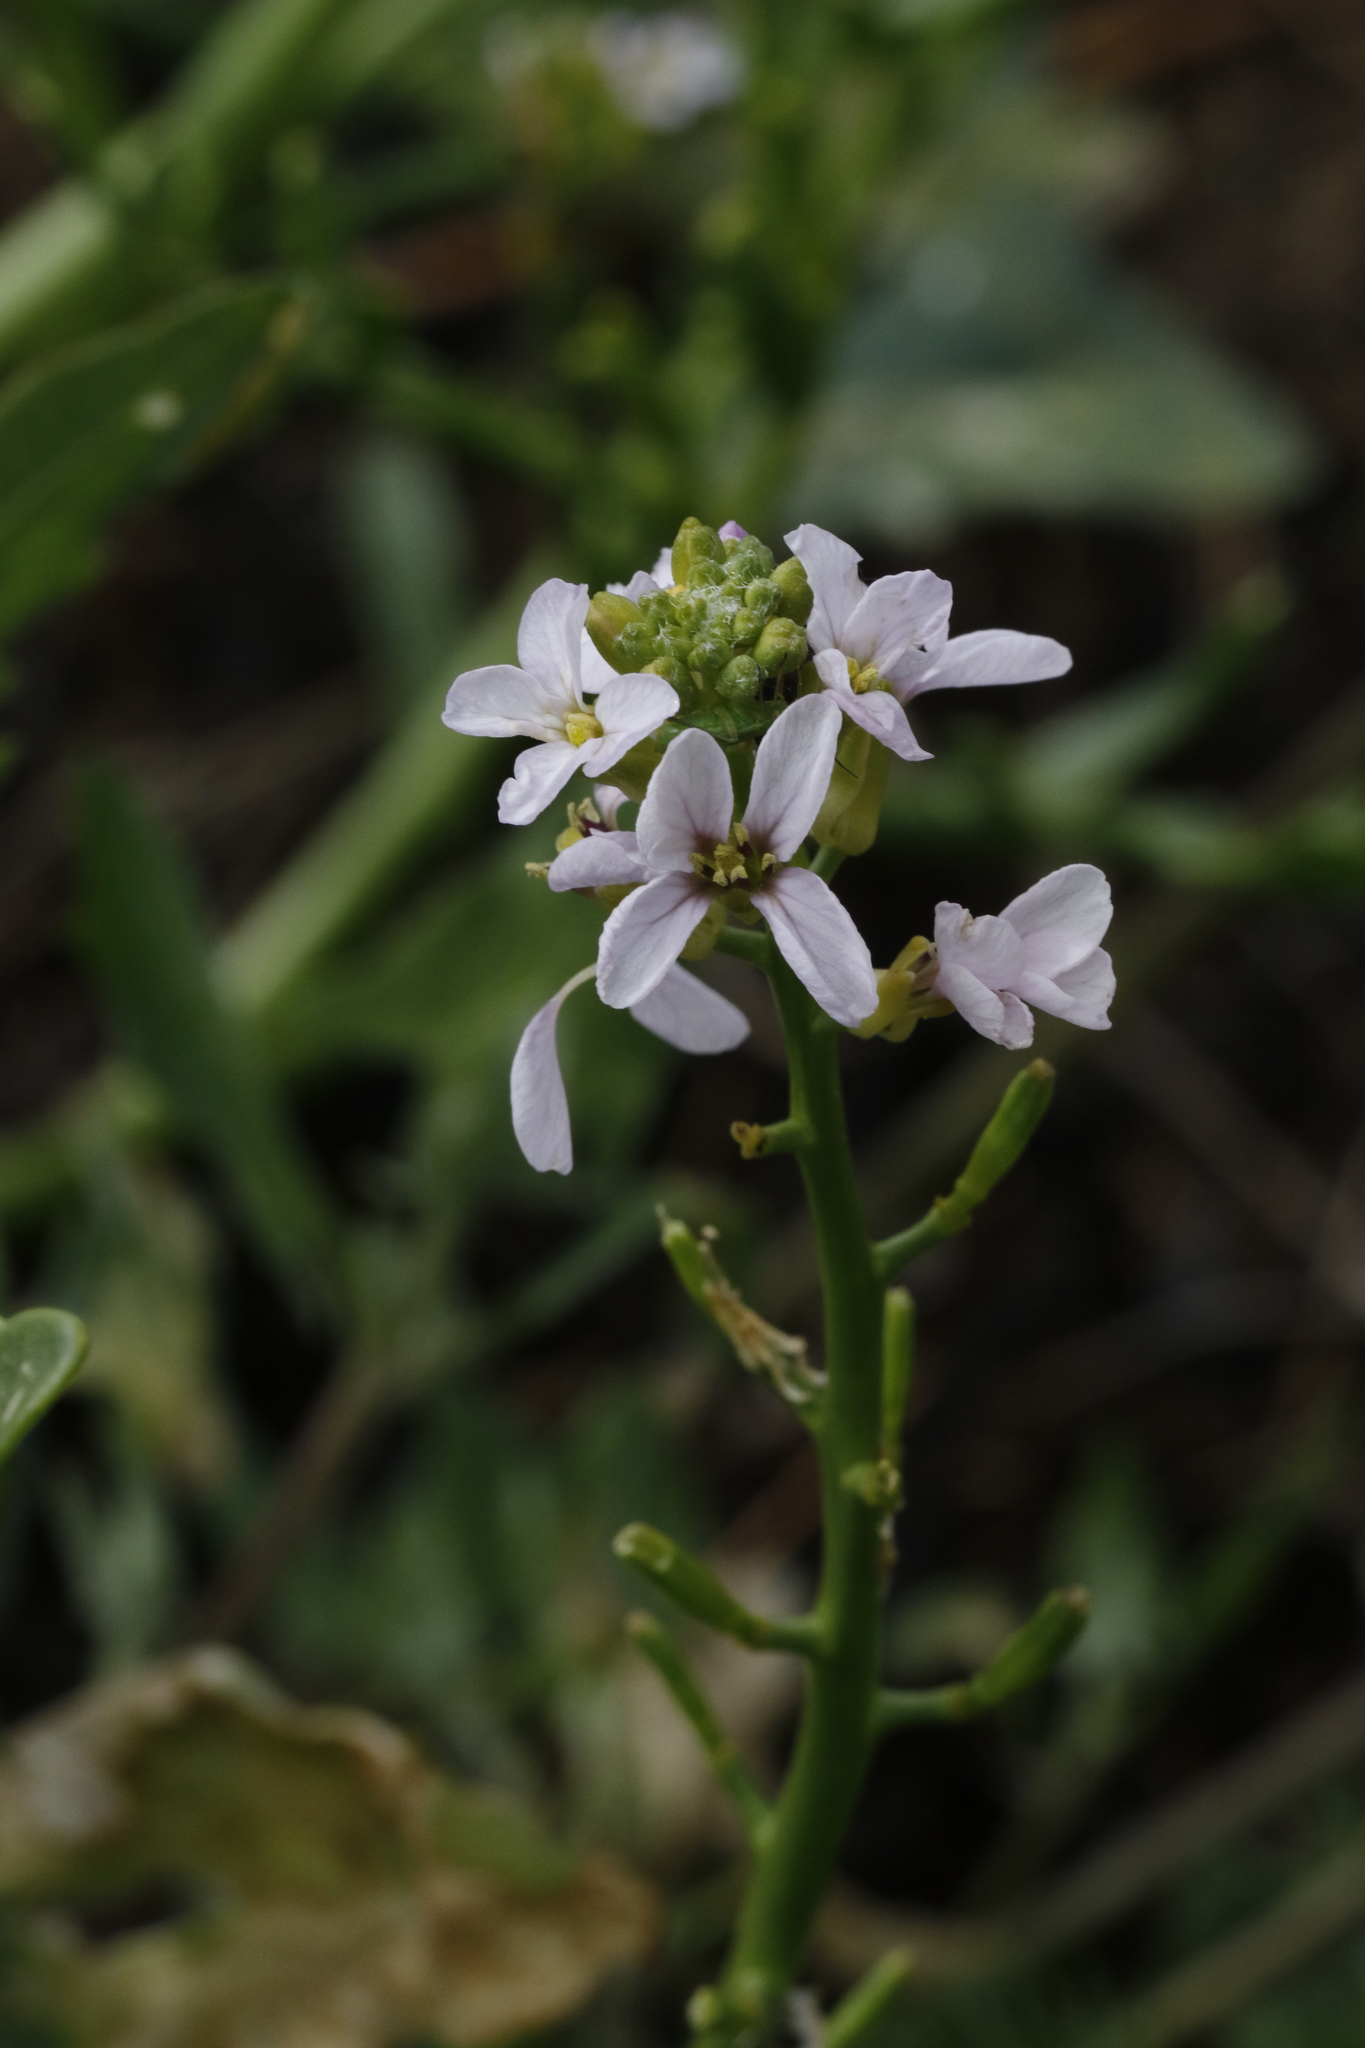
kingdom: Plantae
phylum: Tracheophyta
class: Magnoliopsida
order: Brassicales
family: Brassicaceae
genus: Cakile
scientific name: Cakile maritima
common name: Sea rocket
